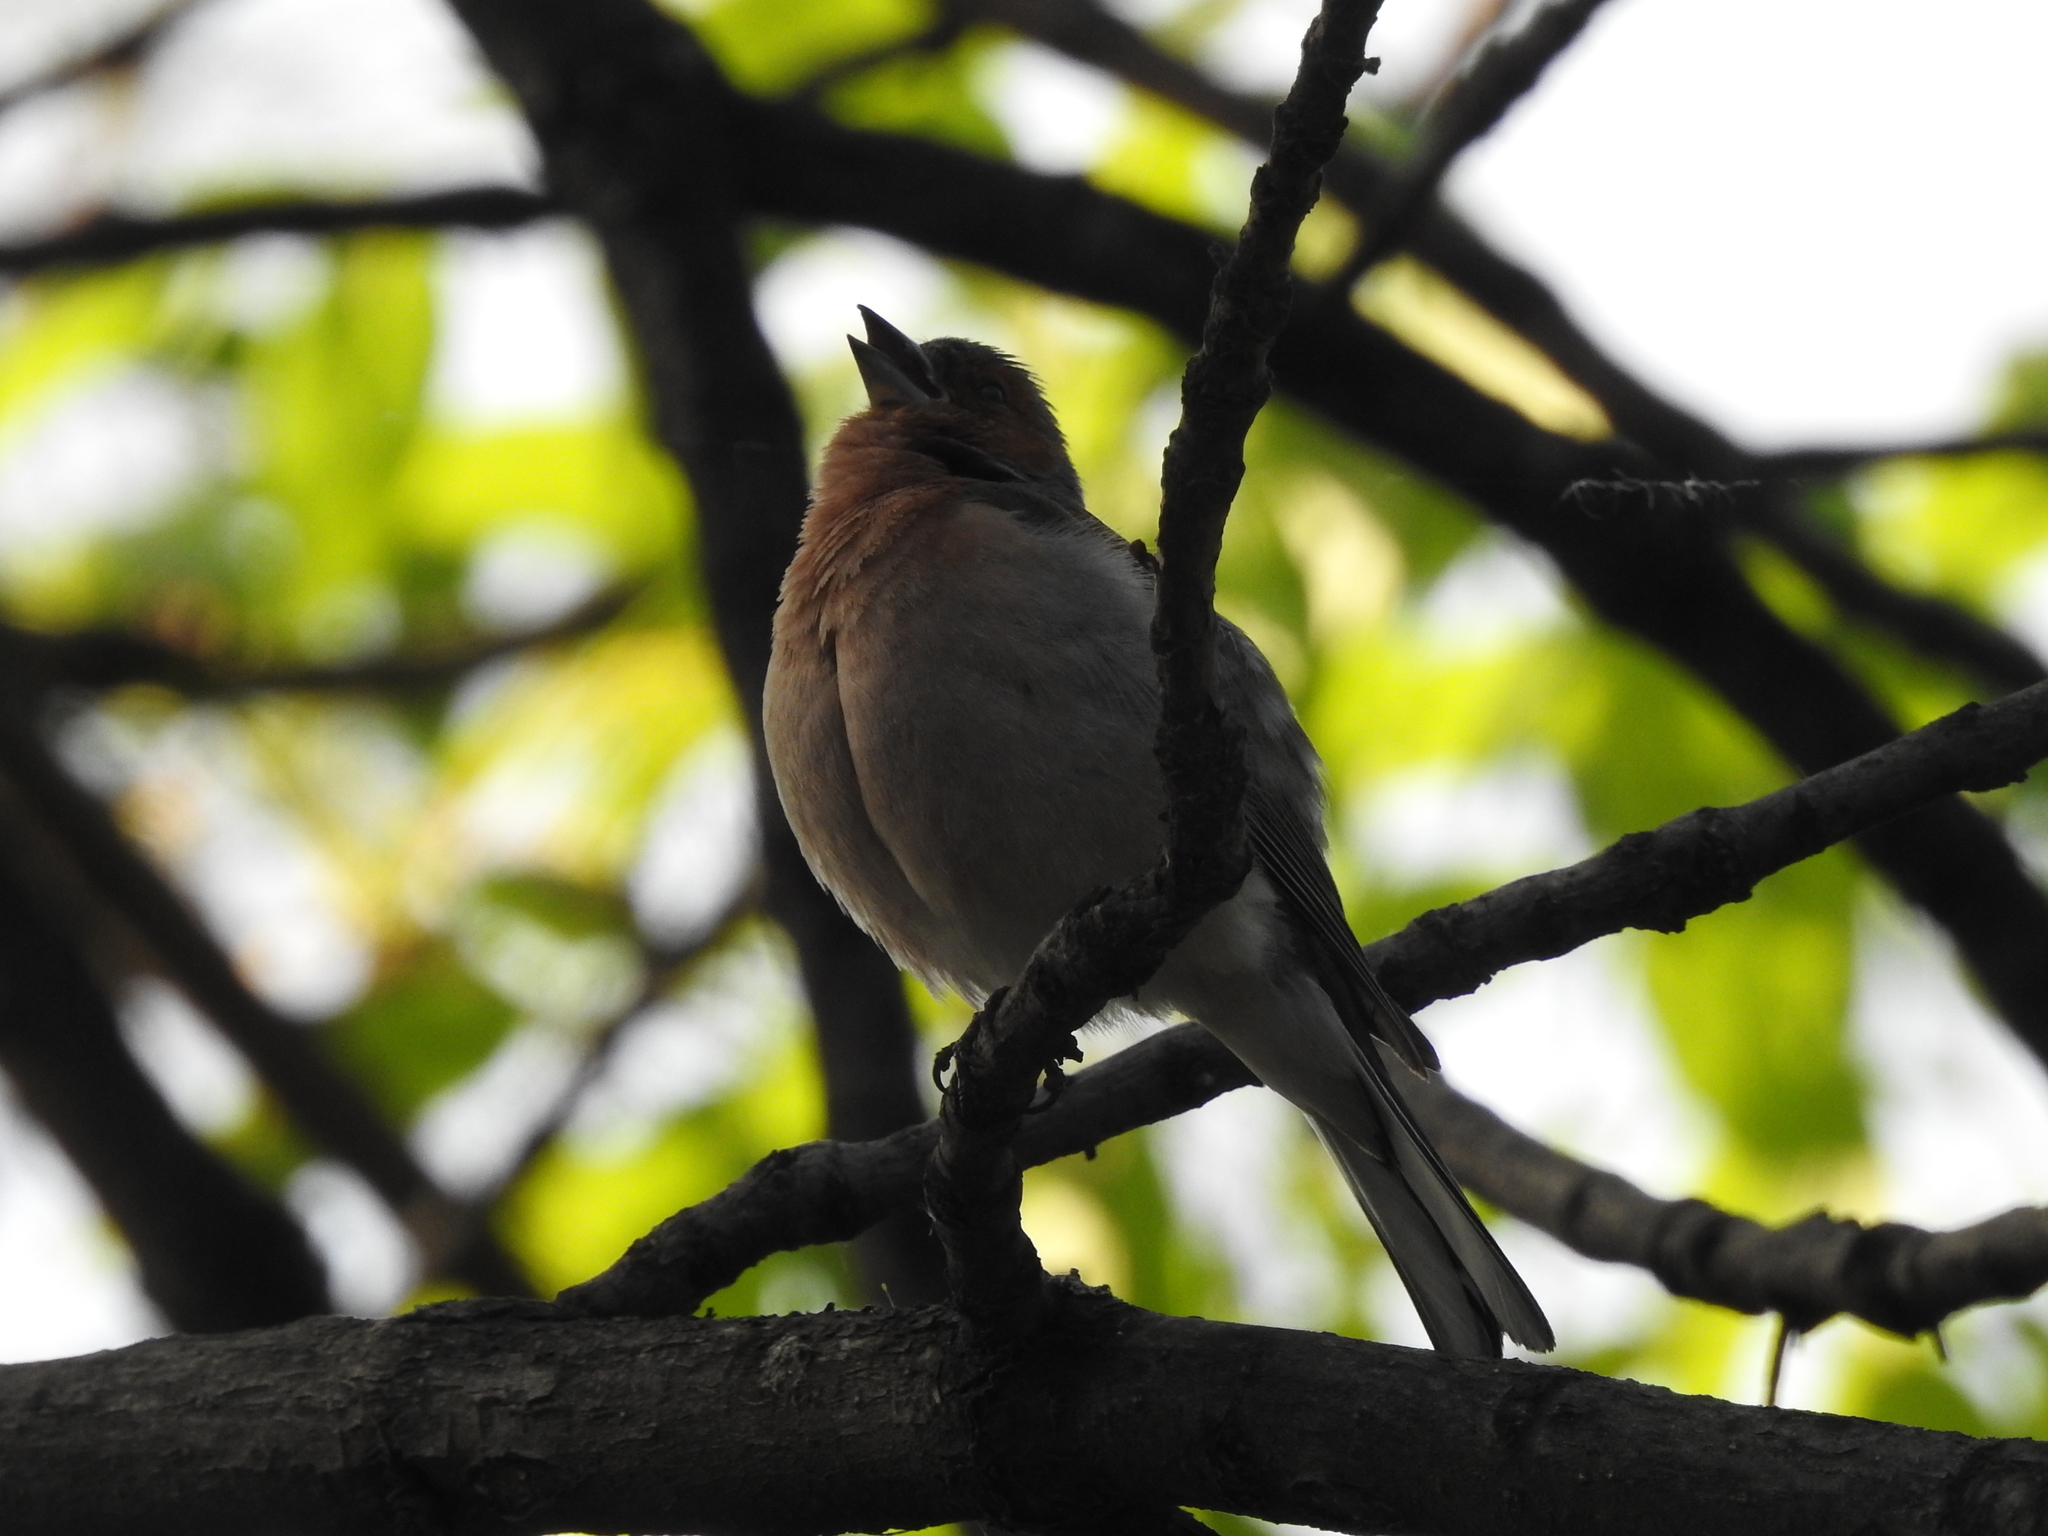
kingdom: Animalia
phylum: Chordata
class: Aves
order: Passeriformes
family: Fringillidae
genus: Fringilla
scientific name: Fringilla coelebs
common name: Common chaffinch
